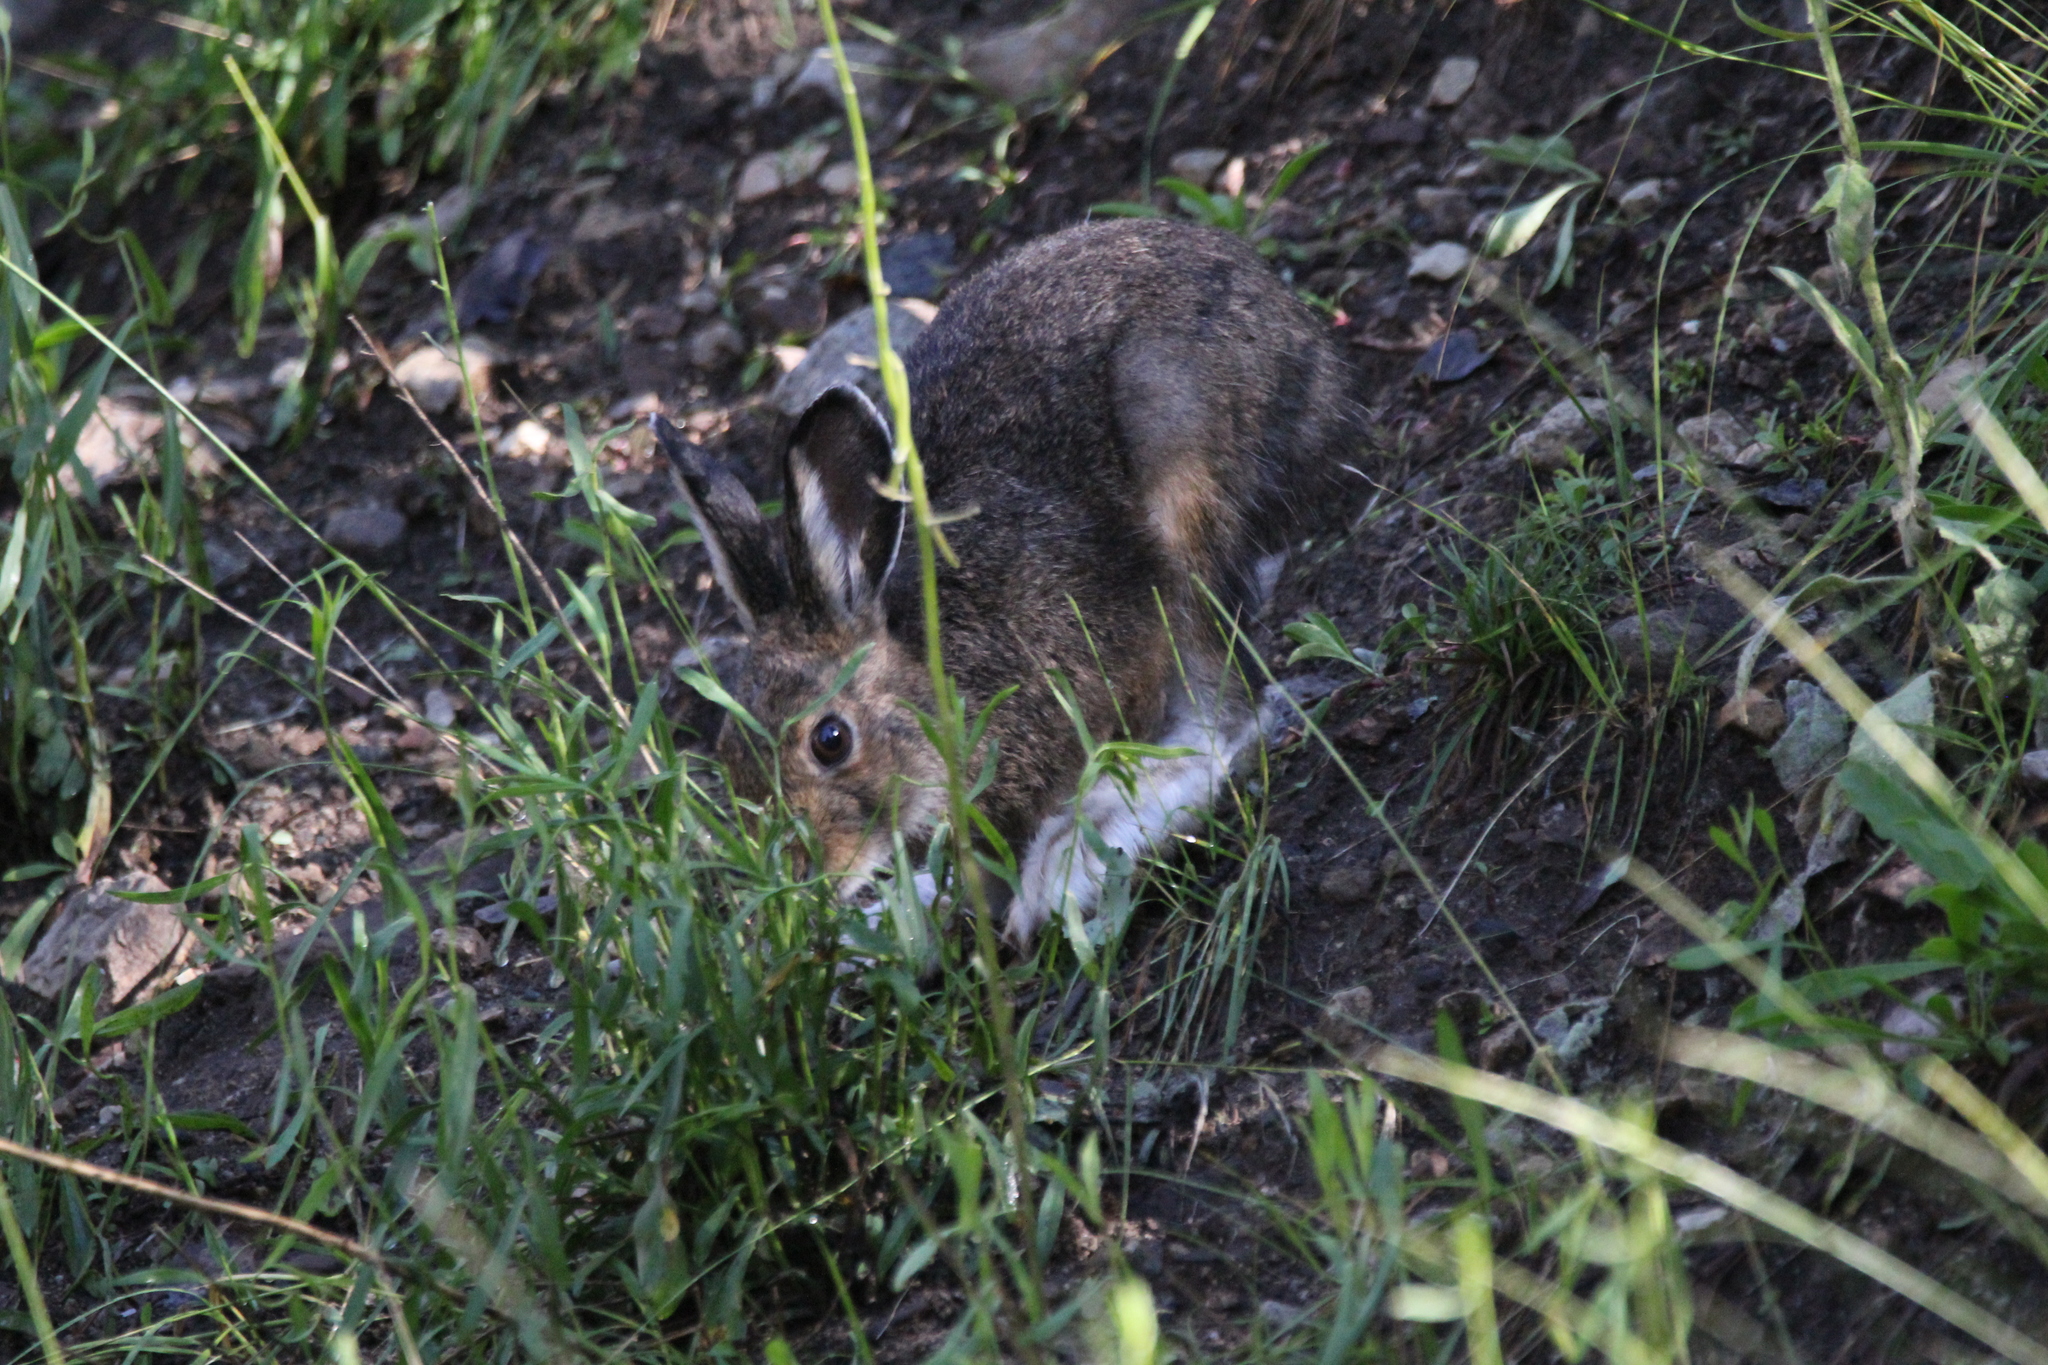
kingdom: Animalia
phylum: Chordata
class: Mammalia
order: Lagomorpha
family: Leporidae
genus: Lepus
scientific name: Lepus americanus
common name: Snowshoe hare
